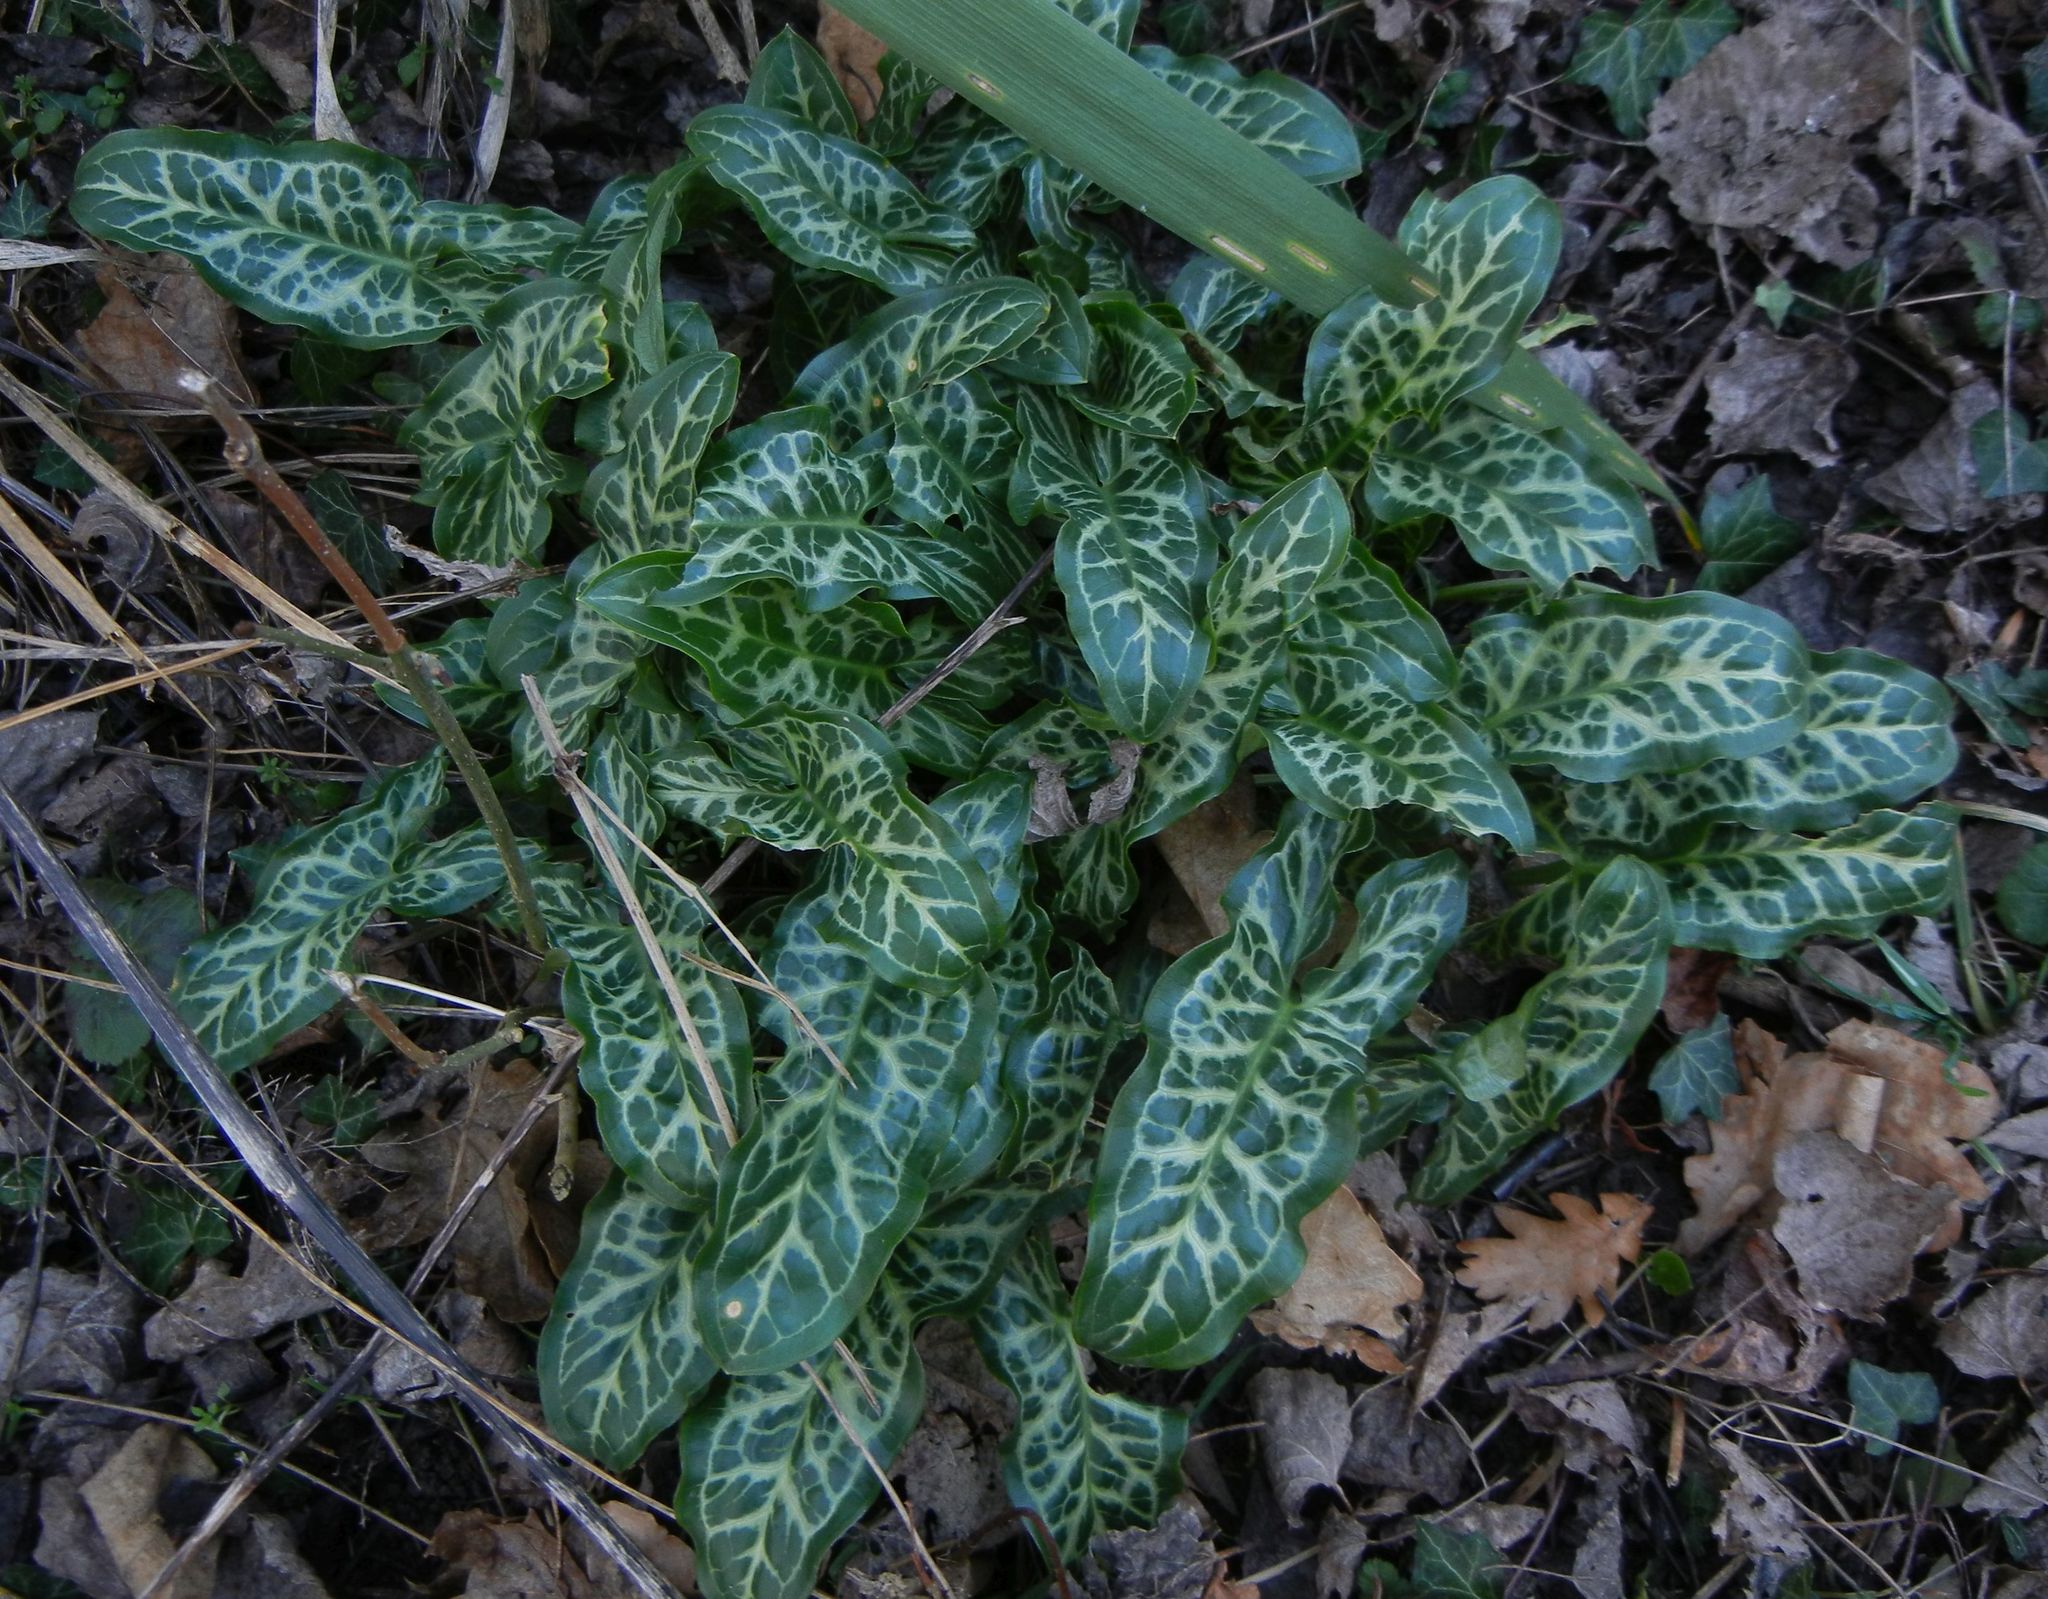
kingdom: Plantae
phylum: Tracheophyta
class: Liliopsida
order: Alismatales
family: Araceae
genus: Arum
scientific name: Arum italicum
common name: Italian lords-and-ladies
